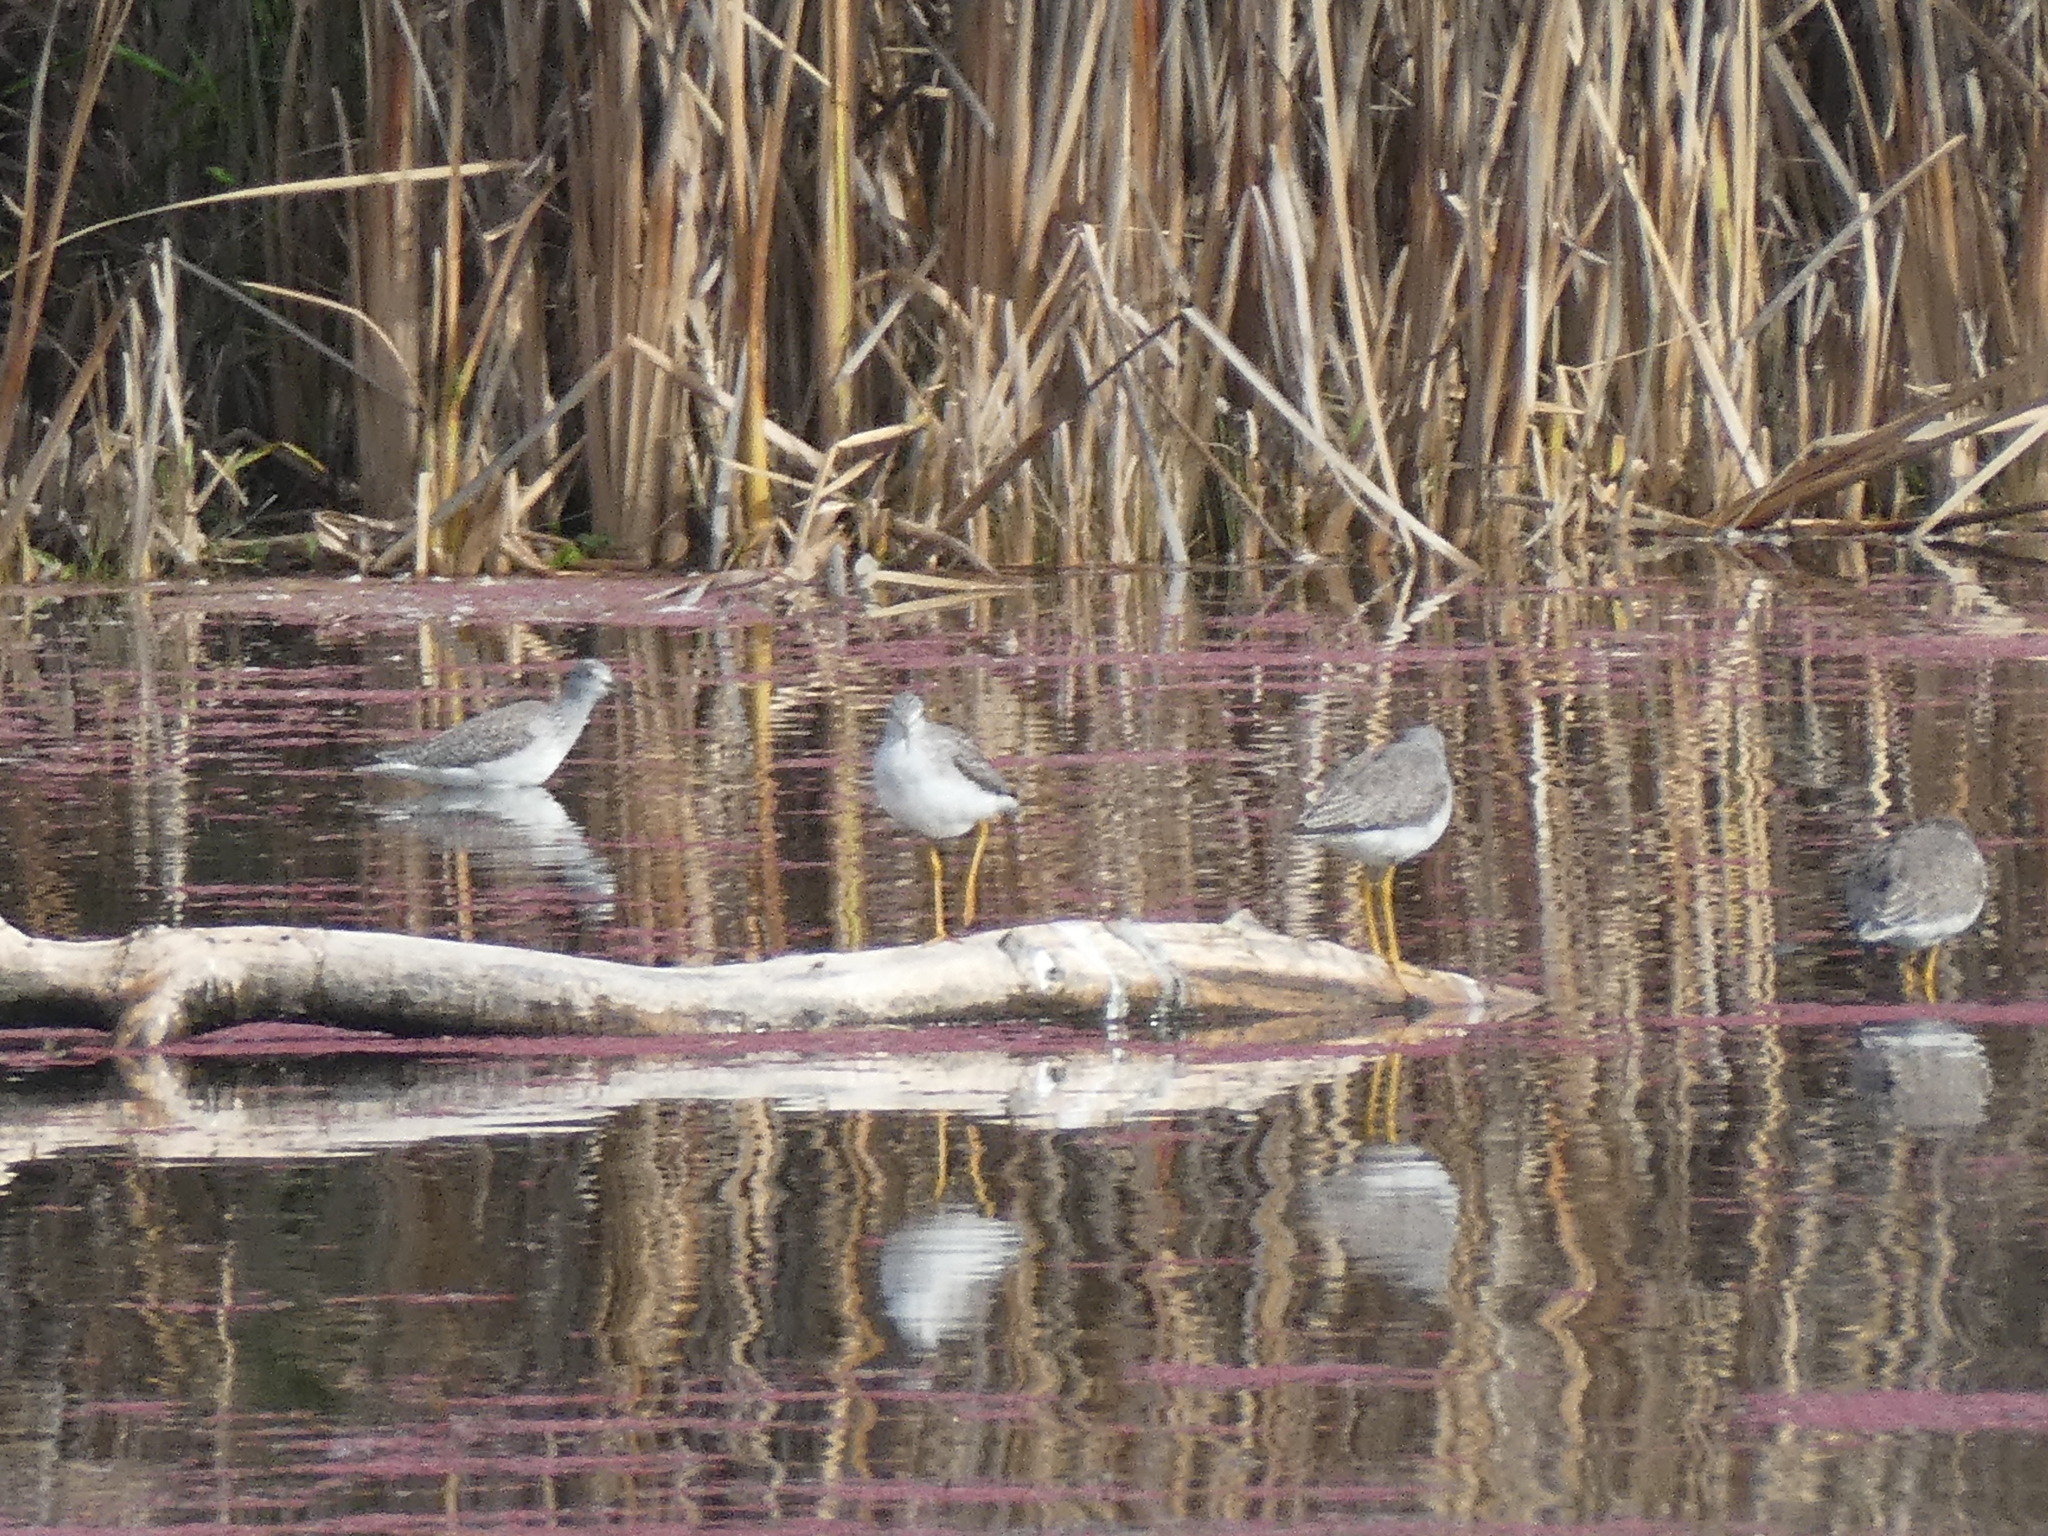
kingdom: Animalia
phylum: Chordata
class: Aves
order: Charadriiformes
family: Scolopacidae
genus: Tringa
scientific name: Tringa melanoleuca
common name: Greater yellowlegs
